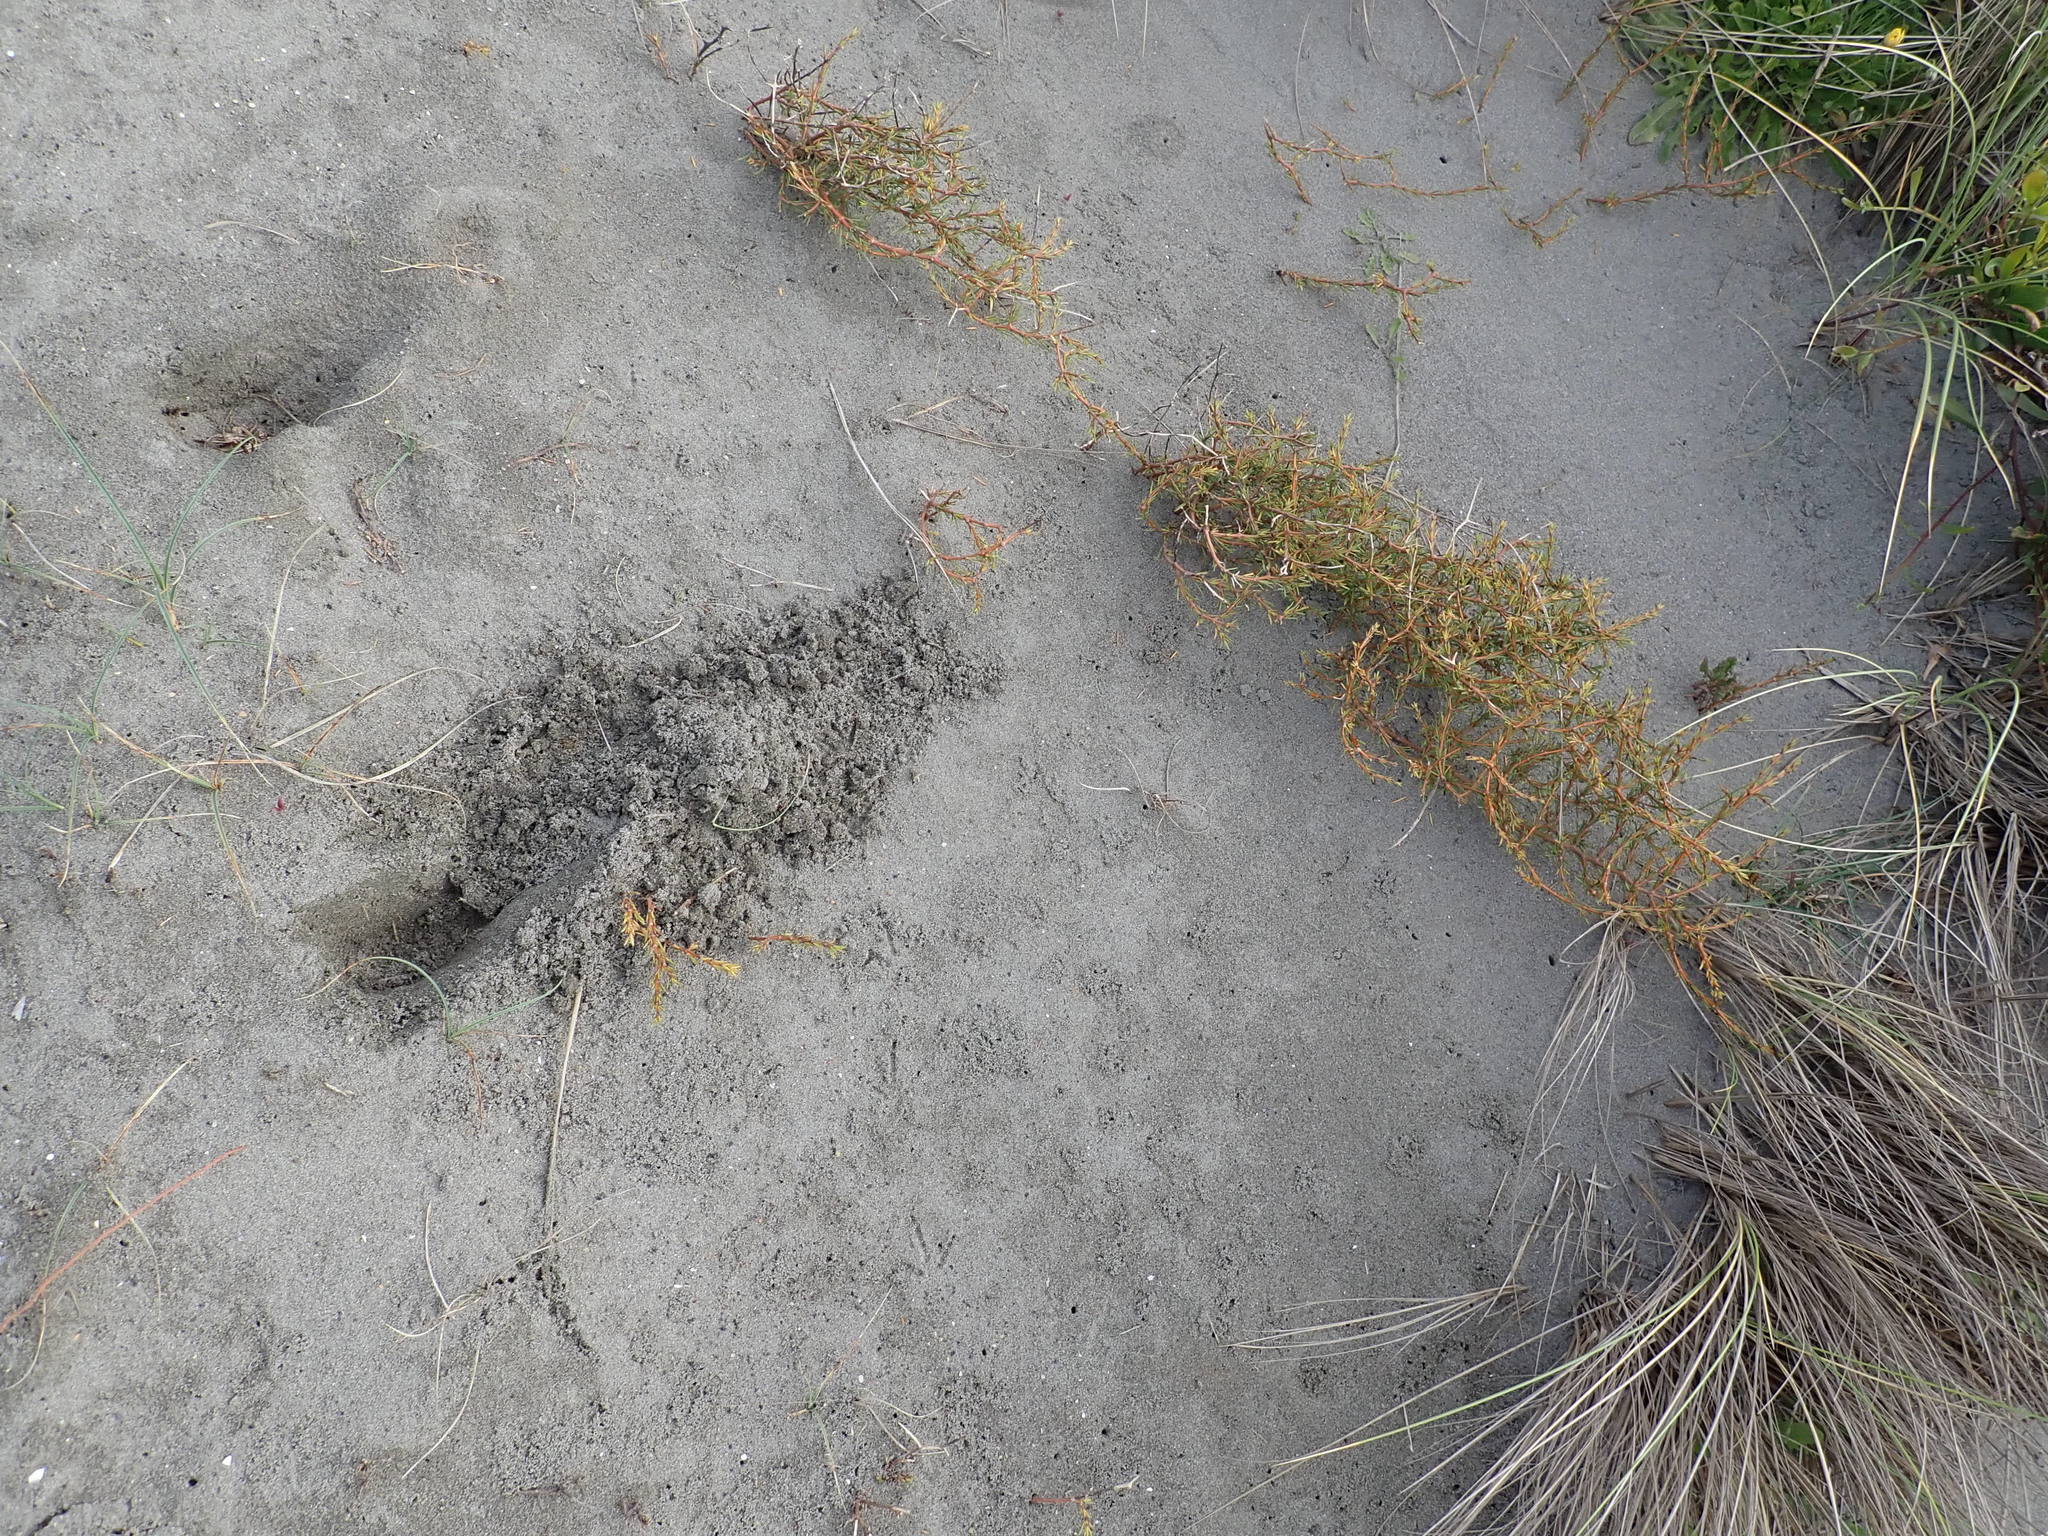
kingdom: Animalia
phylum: Chordata
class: Mammalia
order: Artiodactyla
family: Cervidae
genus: Rusa
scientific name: Rusa unicolor
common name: Sambar
